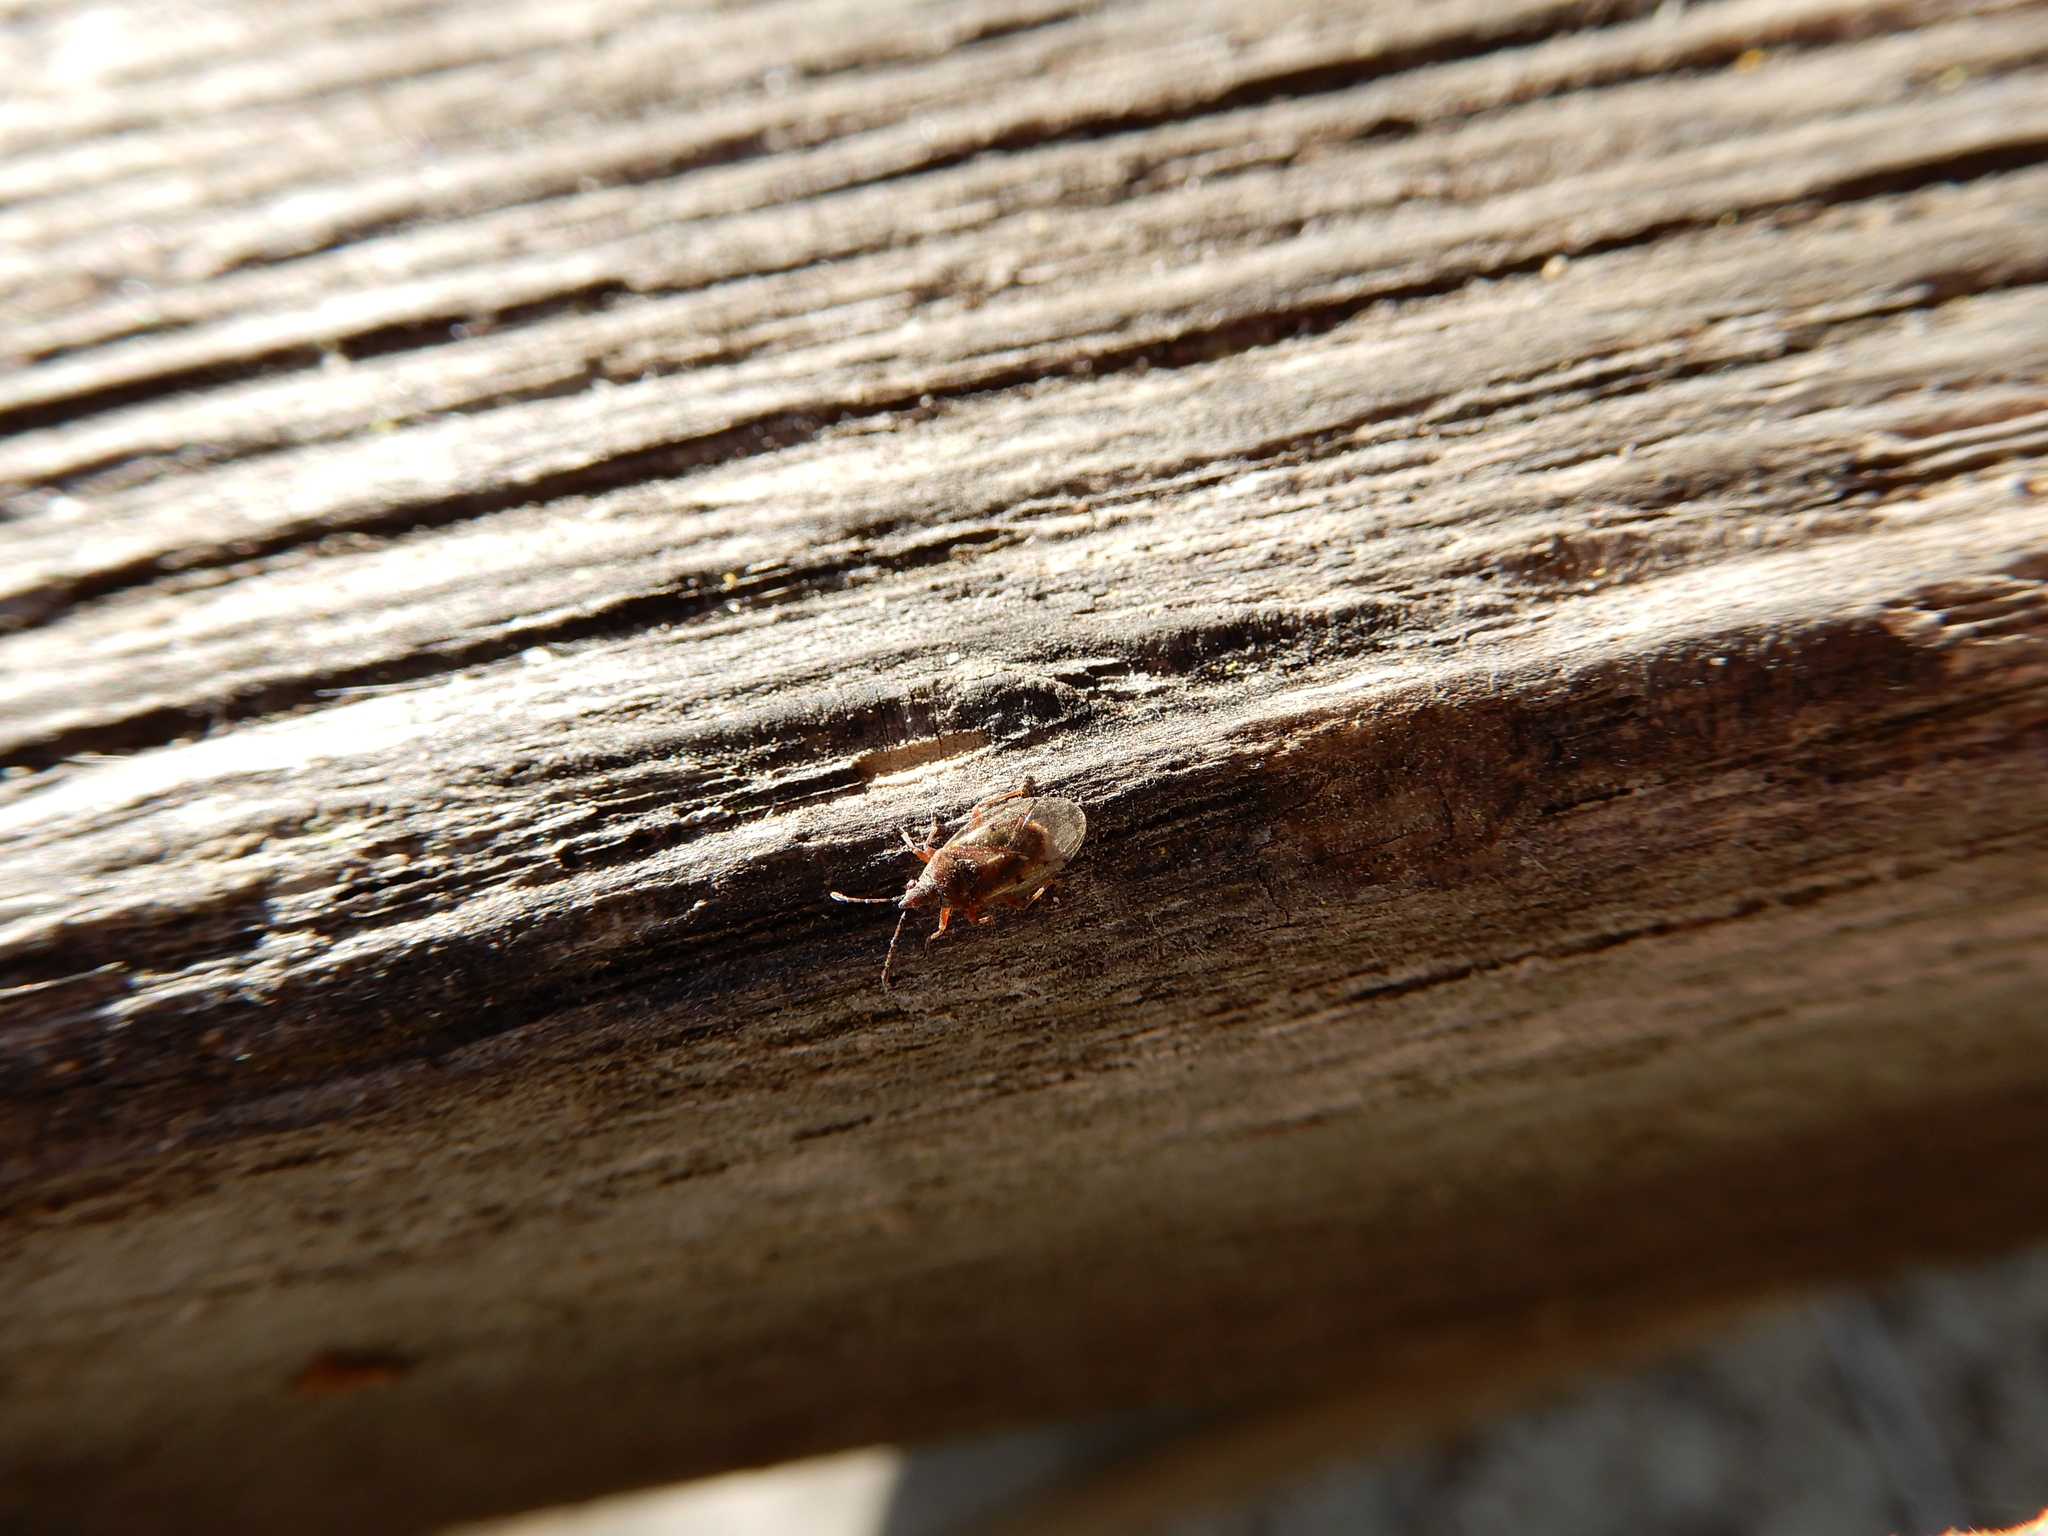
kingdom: Animalia
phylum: Arthropoda
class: Insecta
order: Hemiptera
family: Lygaeidae
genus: Kleidocerys
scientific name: Kleidocerys resedae
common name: Birch catkin bug
